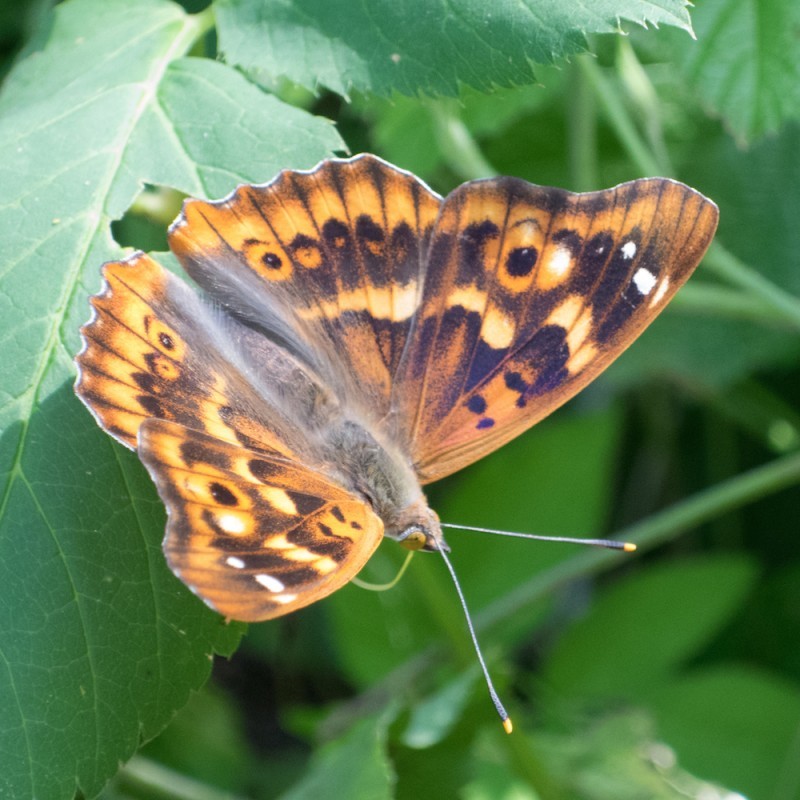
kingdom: Animalia
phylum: Arthropoda
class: Insecta
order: Lepidoptera
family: Nymphalidae
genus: Apatura
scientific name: Apatura ilia
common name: Lesser purple emperor
